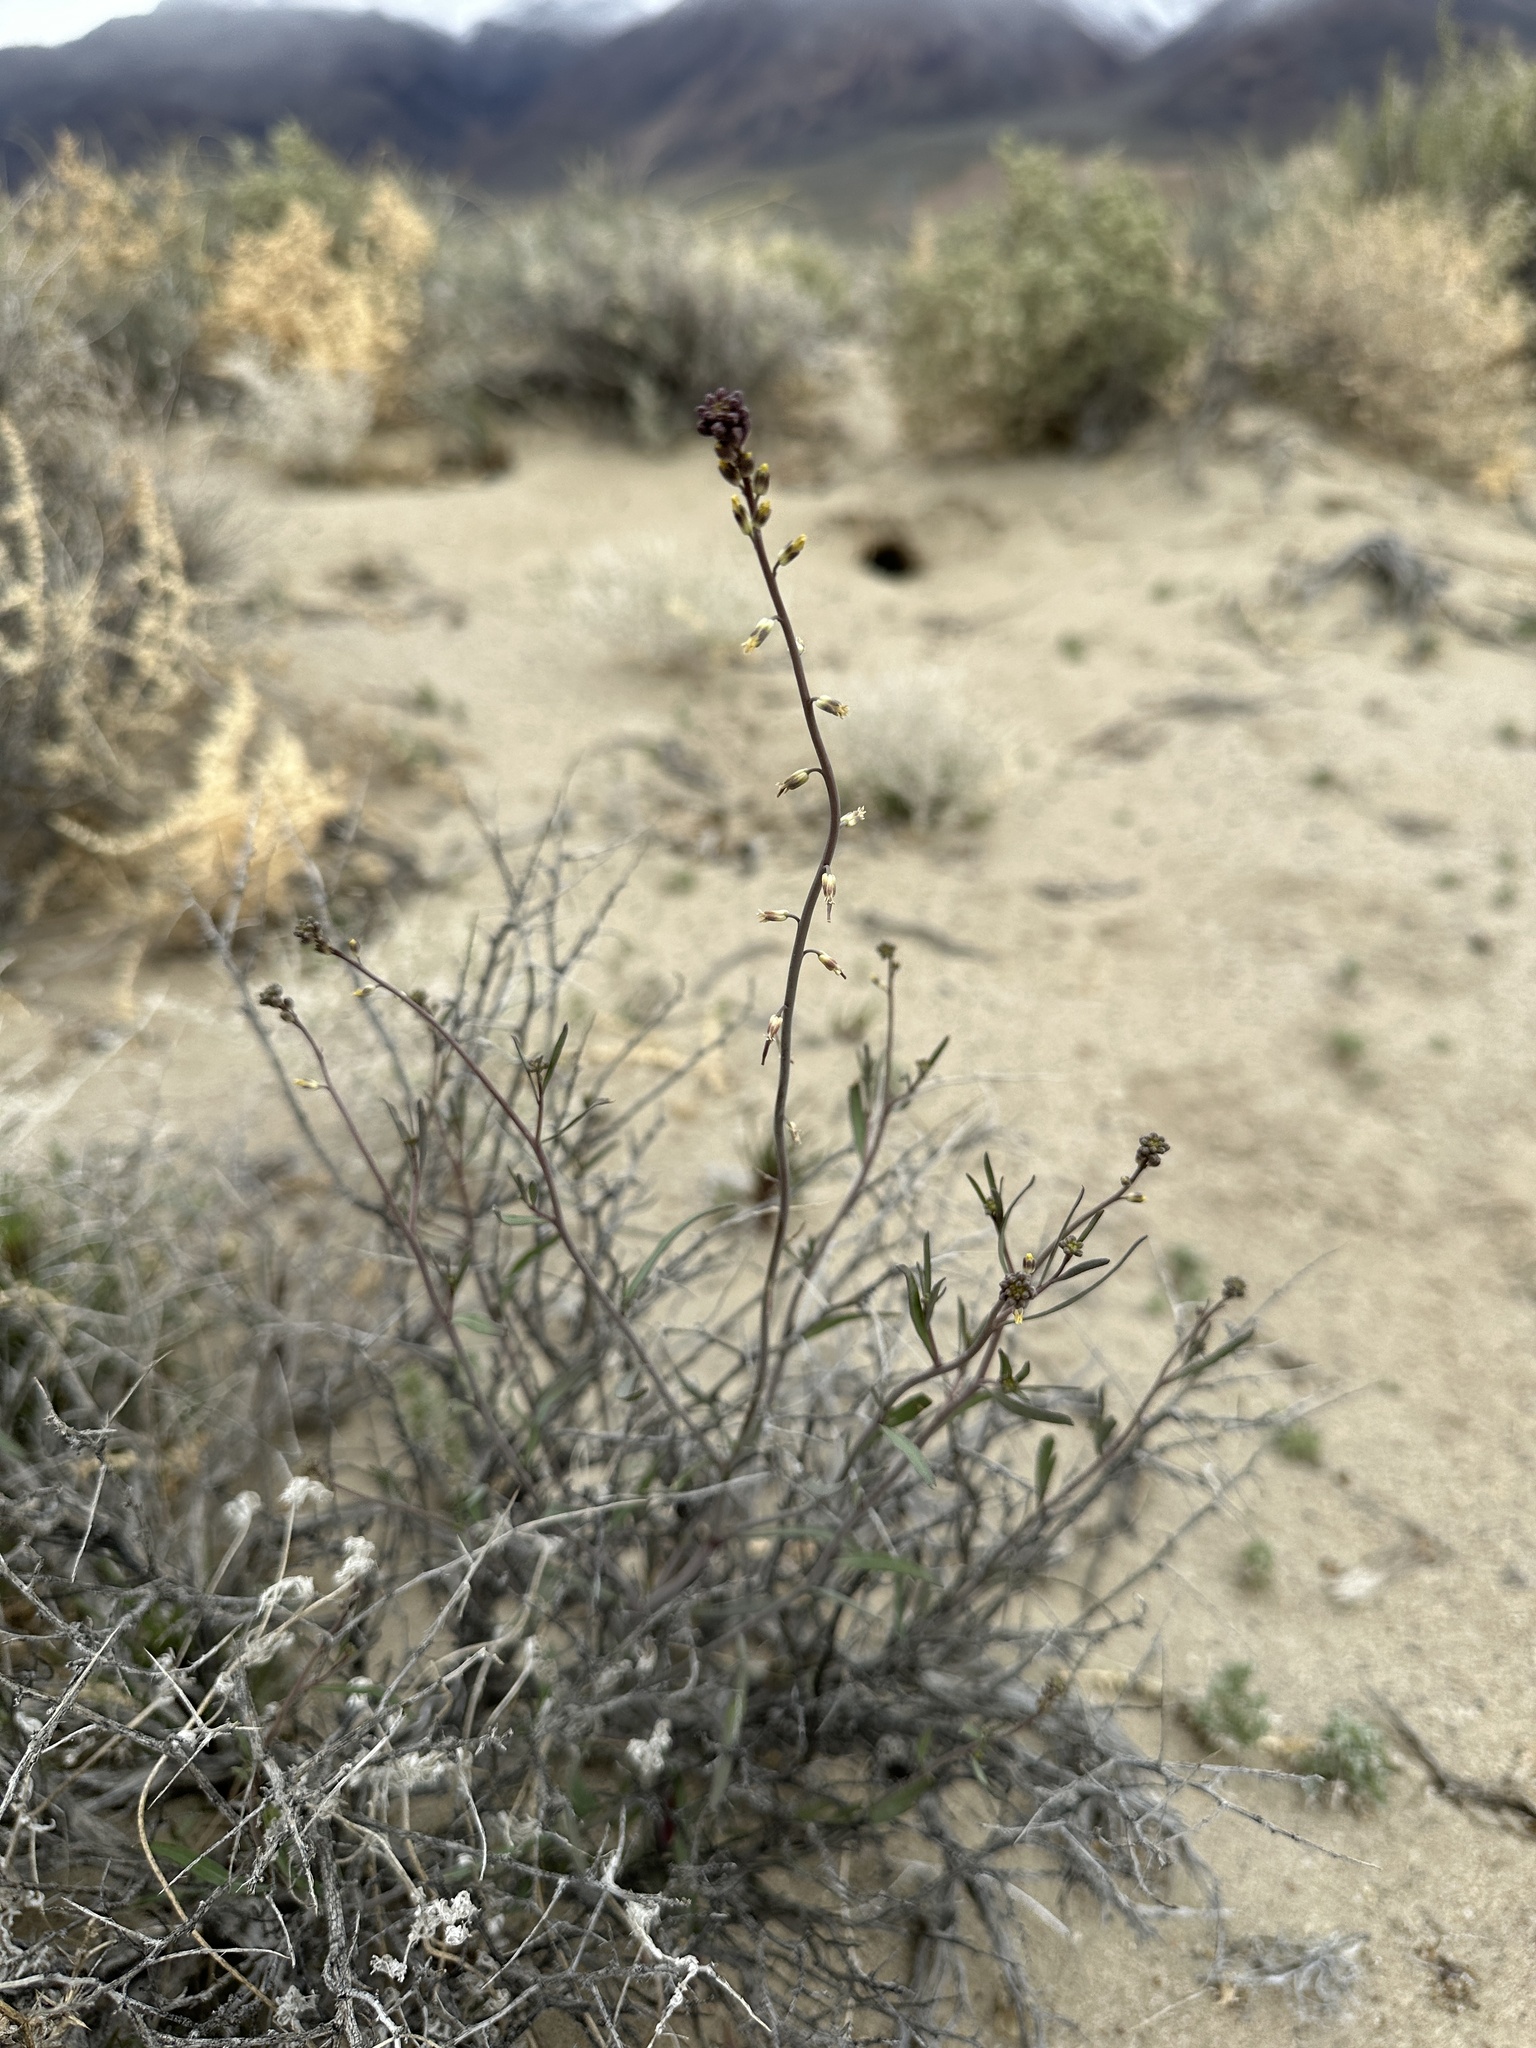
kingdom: Plantae
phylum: Tracheophyta
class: Magnoliopsida
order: Brassicales
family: Brassicaceae
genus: Streptanthus
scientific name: Streptanthus longirostris
